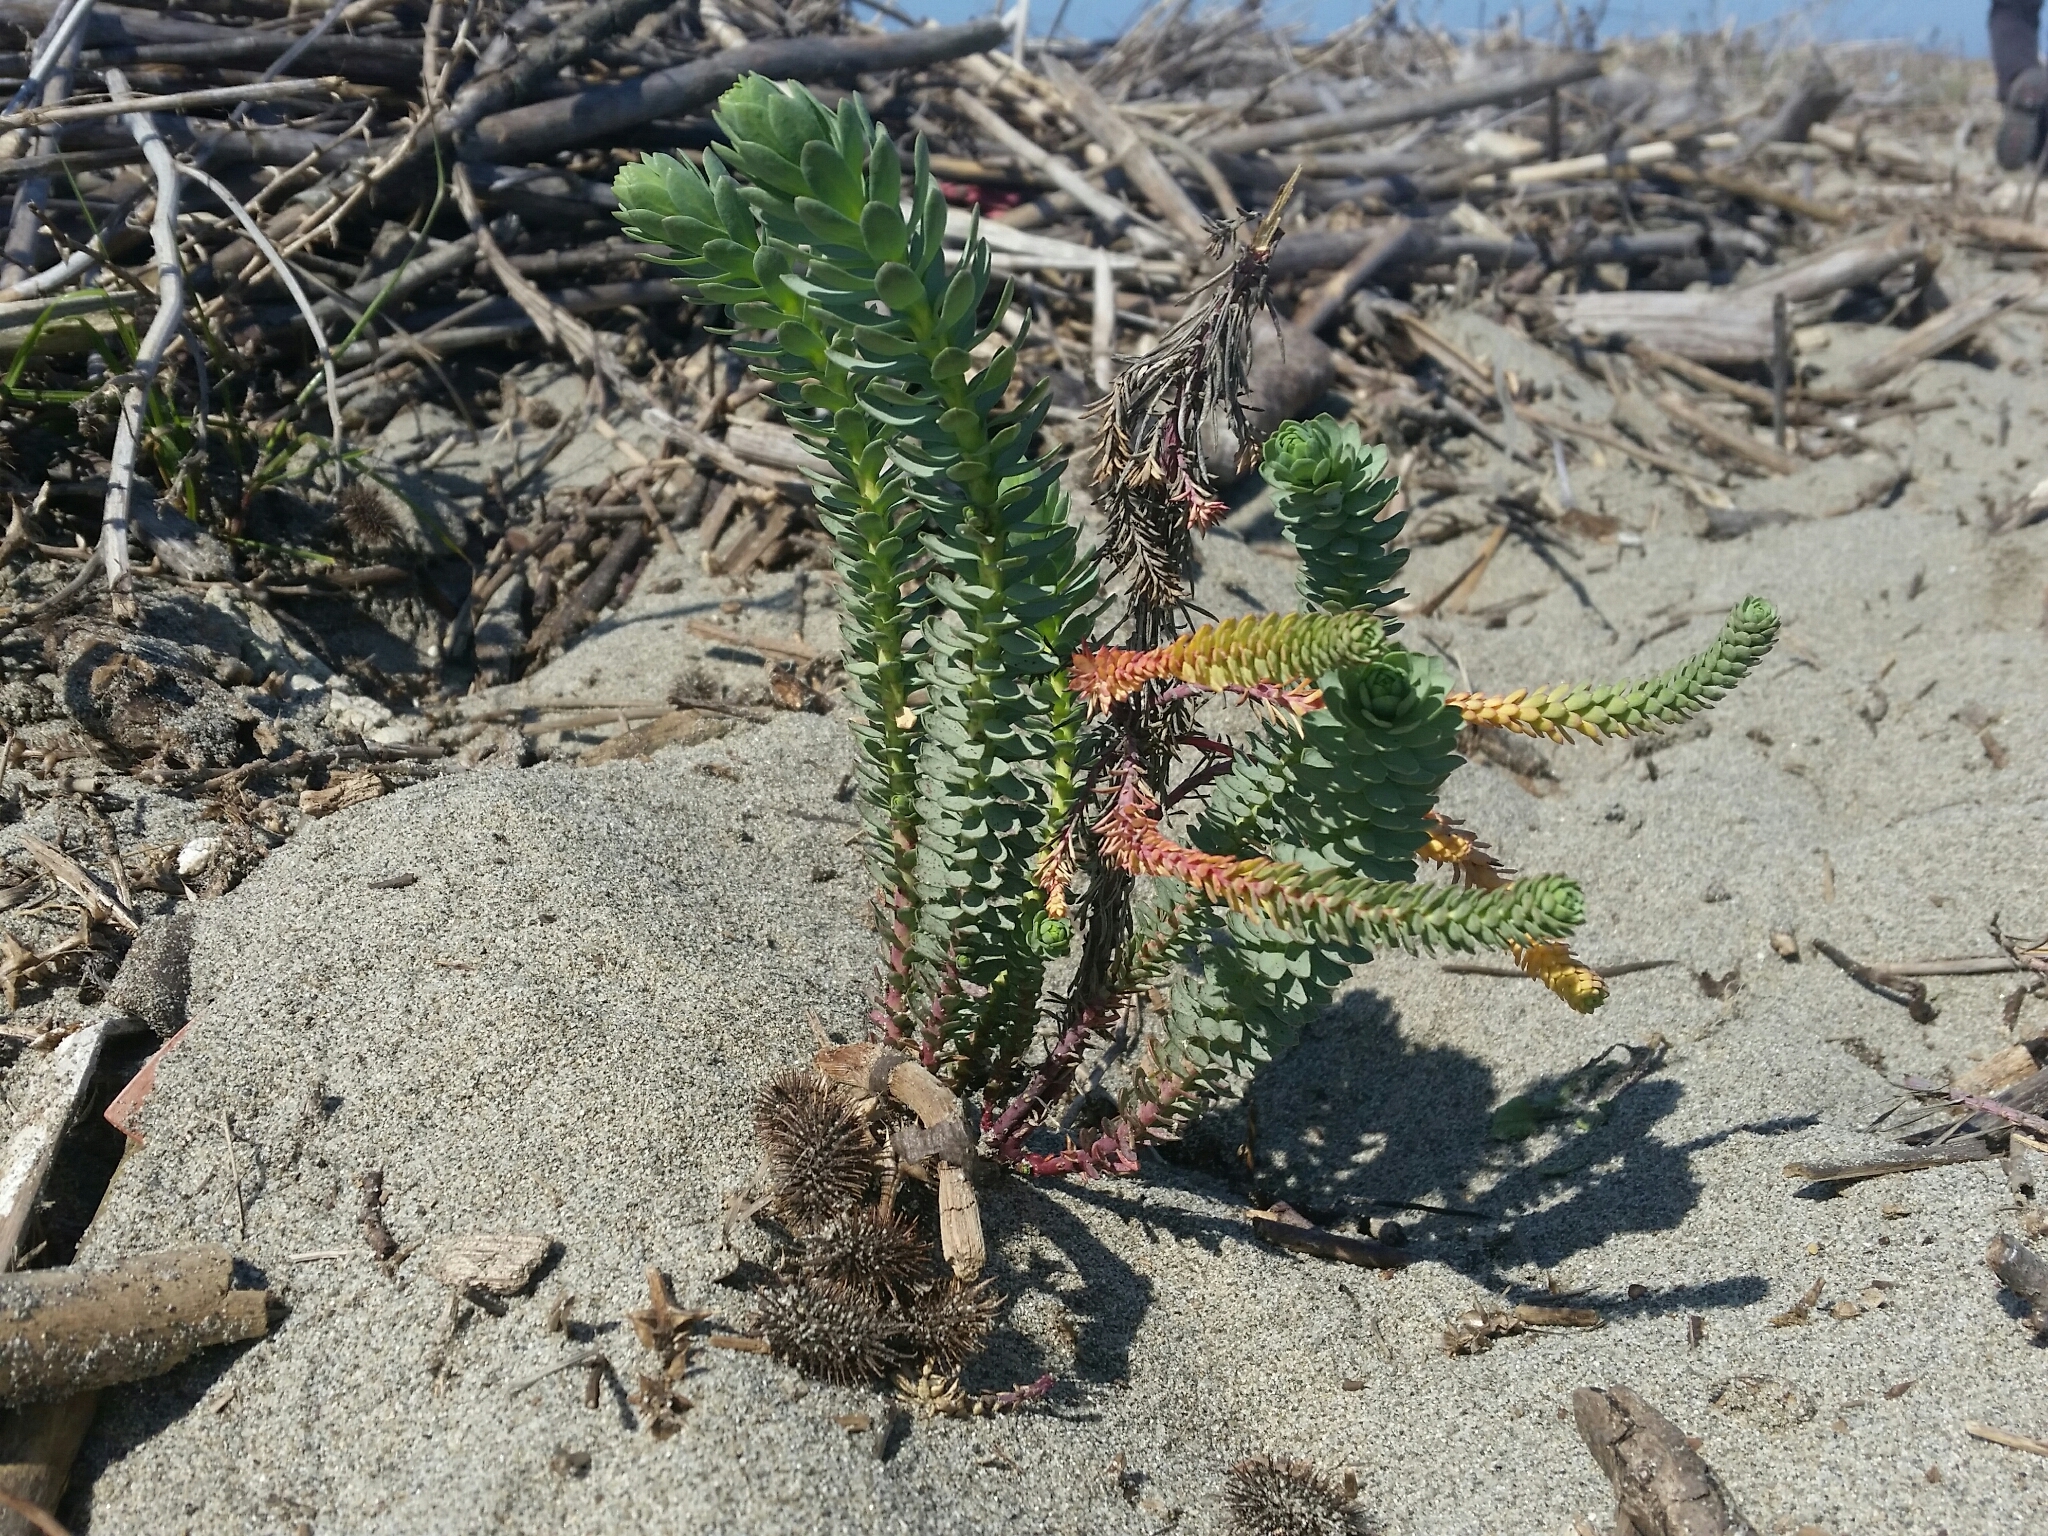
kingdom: Plantae
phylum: Tracheophyta
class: Magnoliopsida
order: Malpighiales
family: Euphorbiaceae
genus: Euphorbia
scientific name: Euphorbia paralias
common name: Sea spurge
